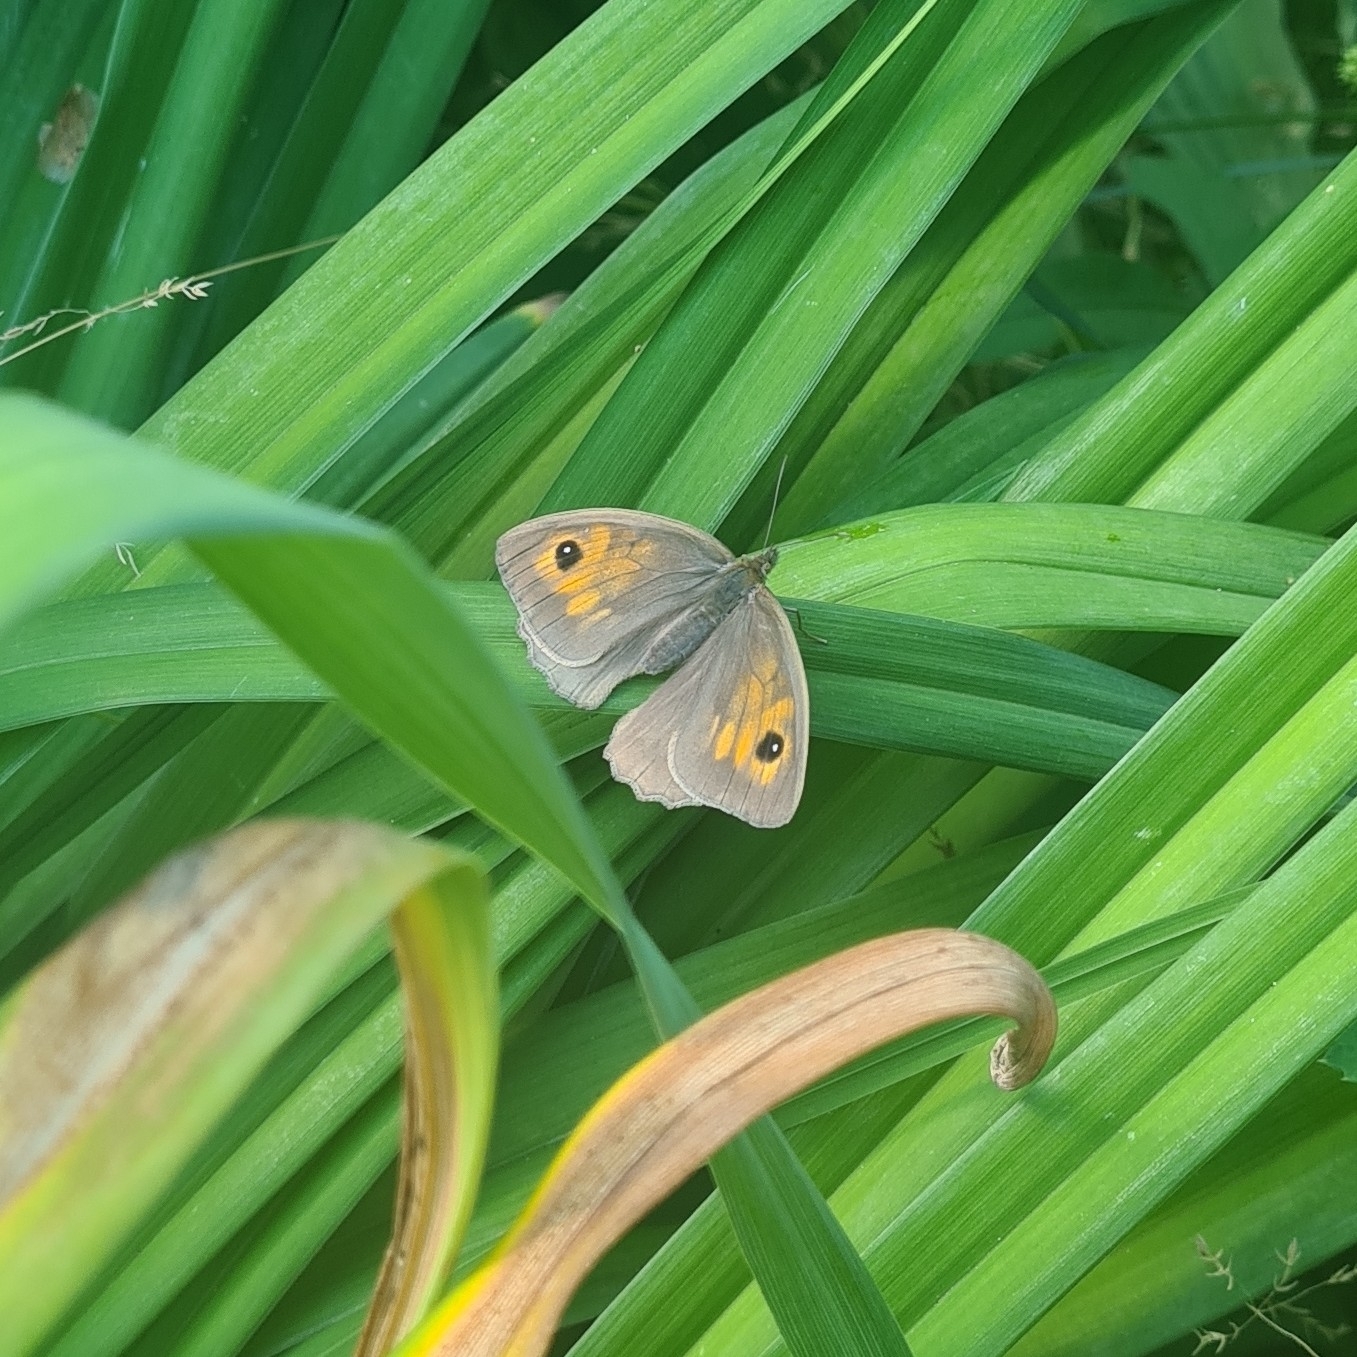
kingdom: Animalia
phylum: Arthropoda
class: Insecta
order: Lepidoptera
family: Nymphalidae
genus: Maniola
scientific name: Maniola jurtina
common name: Meadow brown
